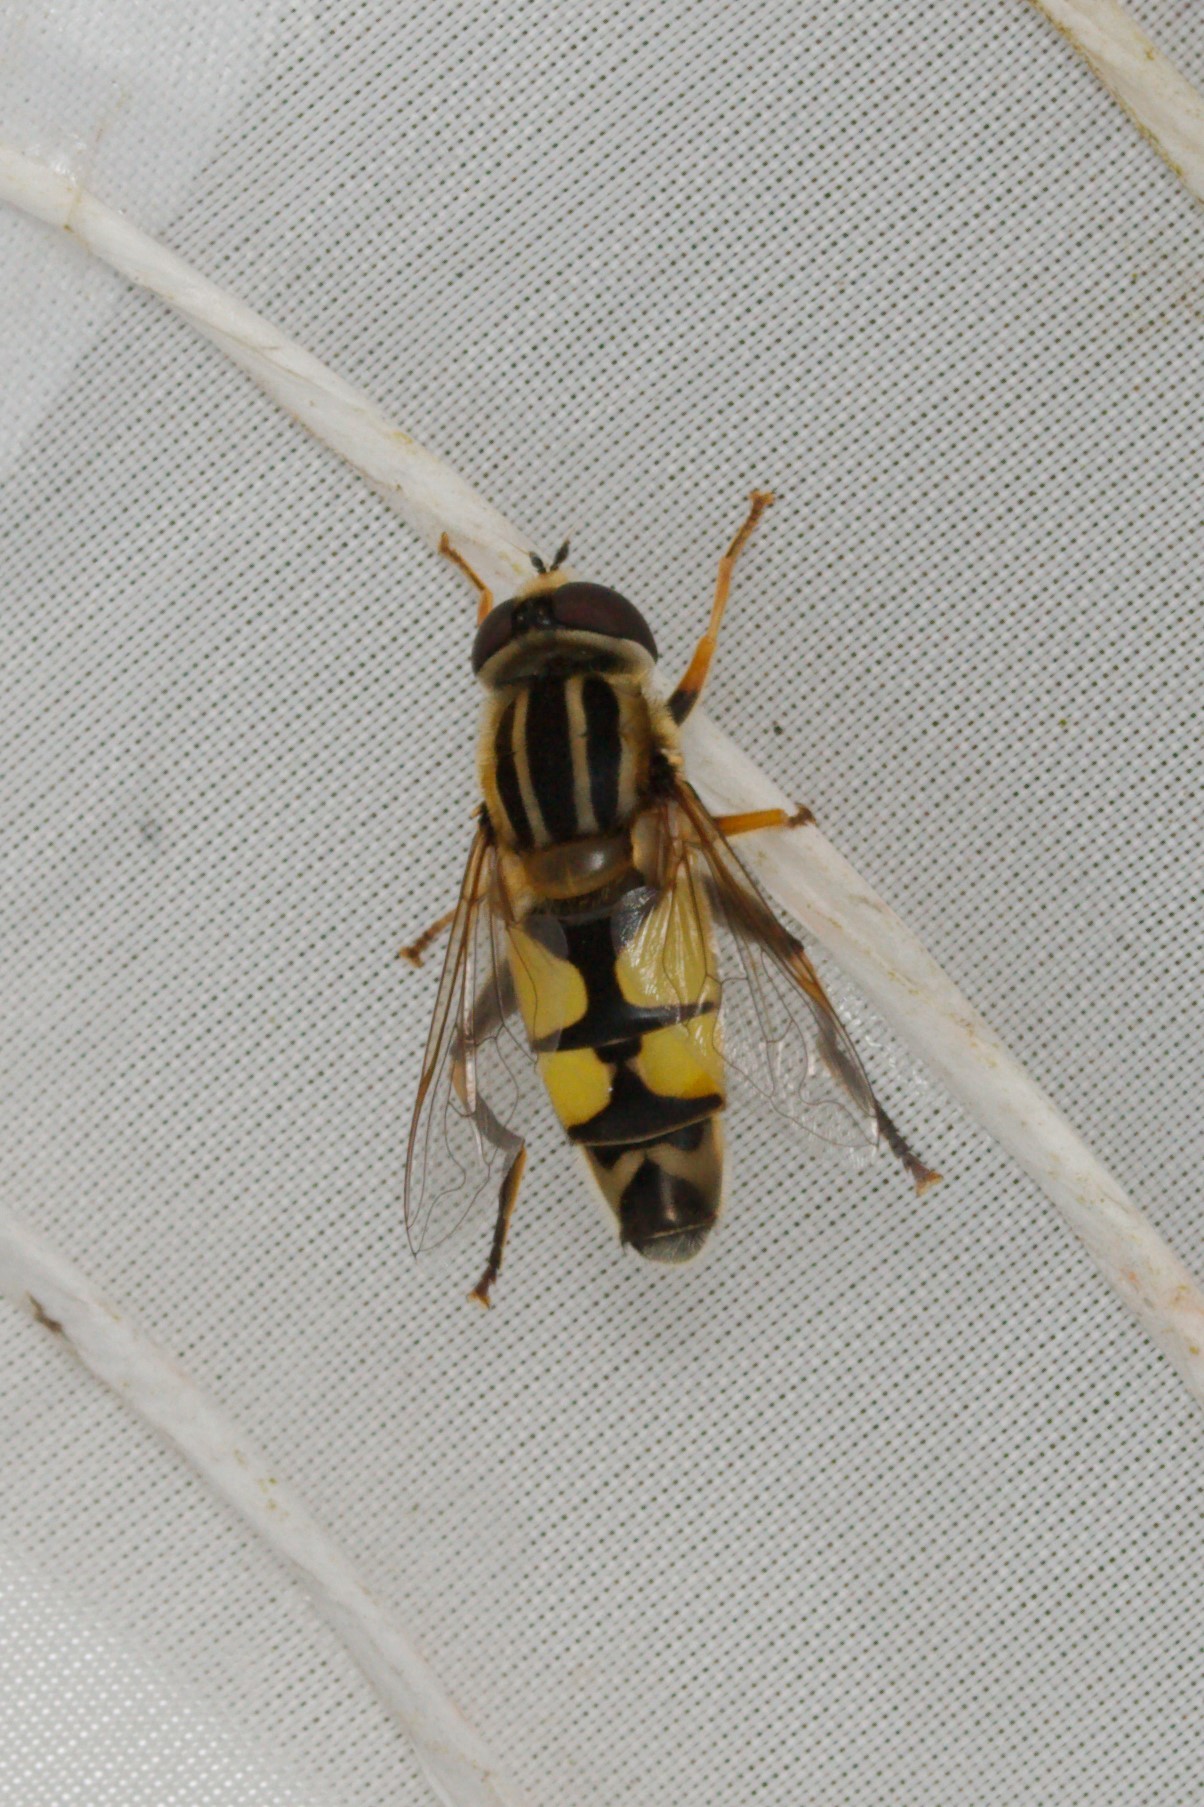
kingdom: Animalia
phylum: Arthropoda
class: Insecta
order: Diptera
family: Syrphidae
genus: Helophilus
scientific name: Helophilus trivittatus
